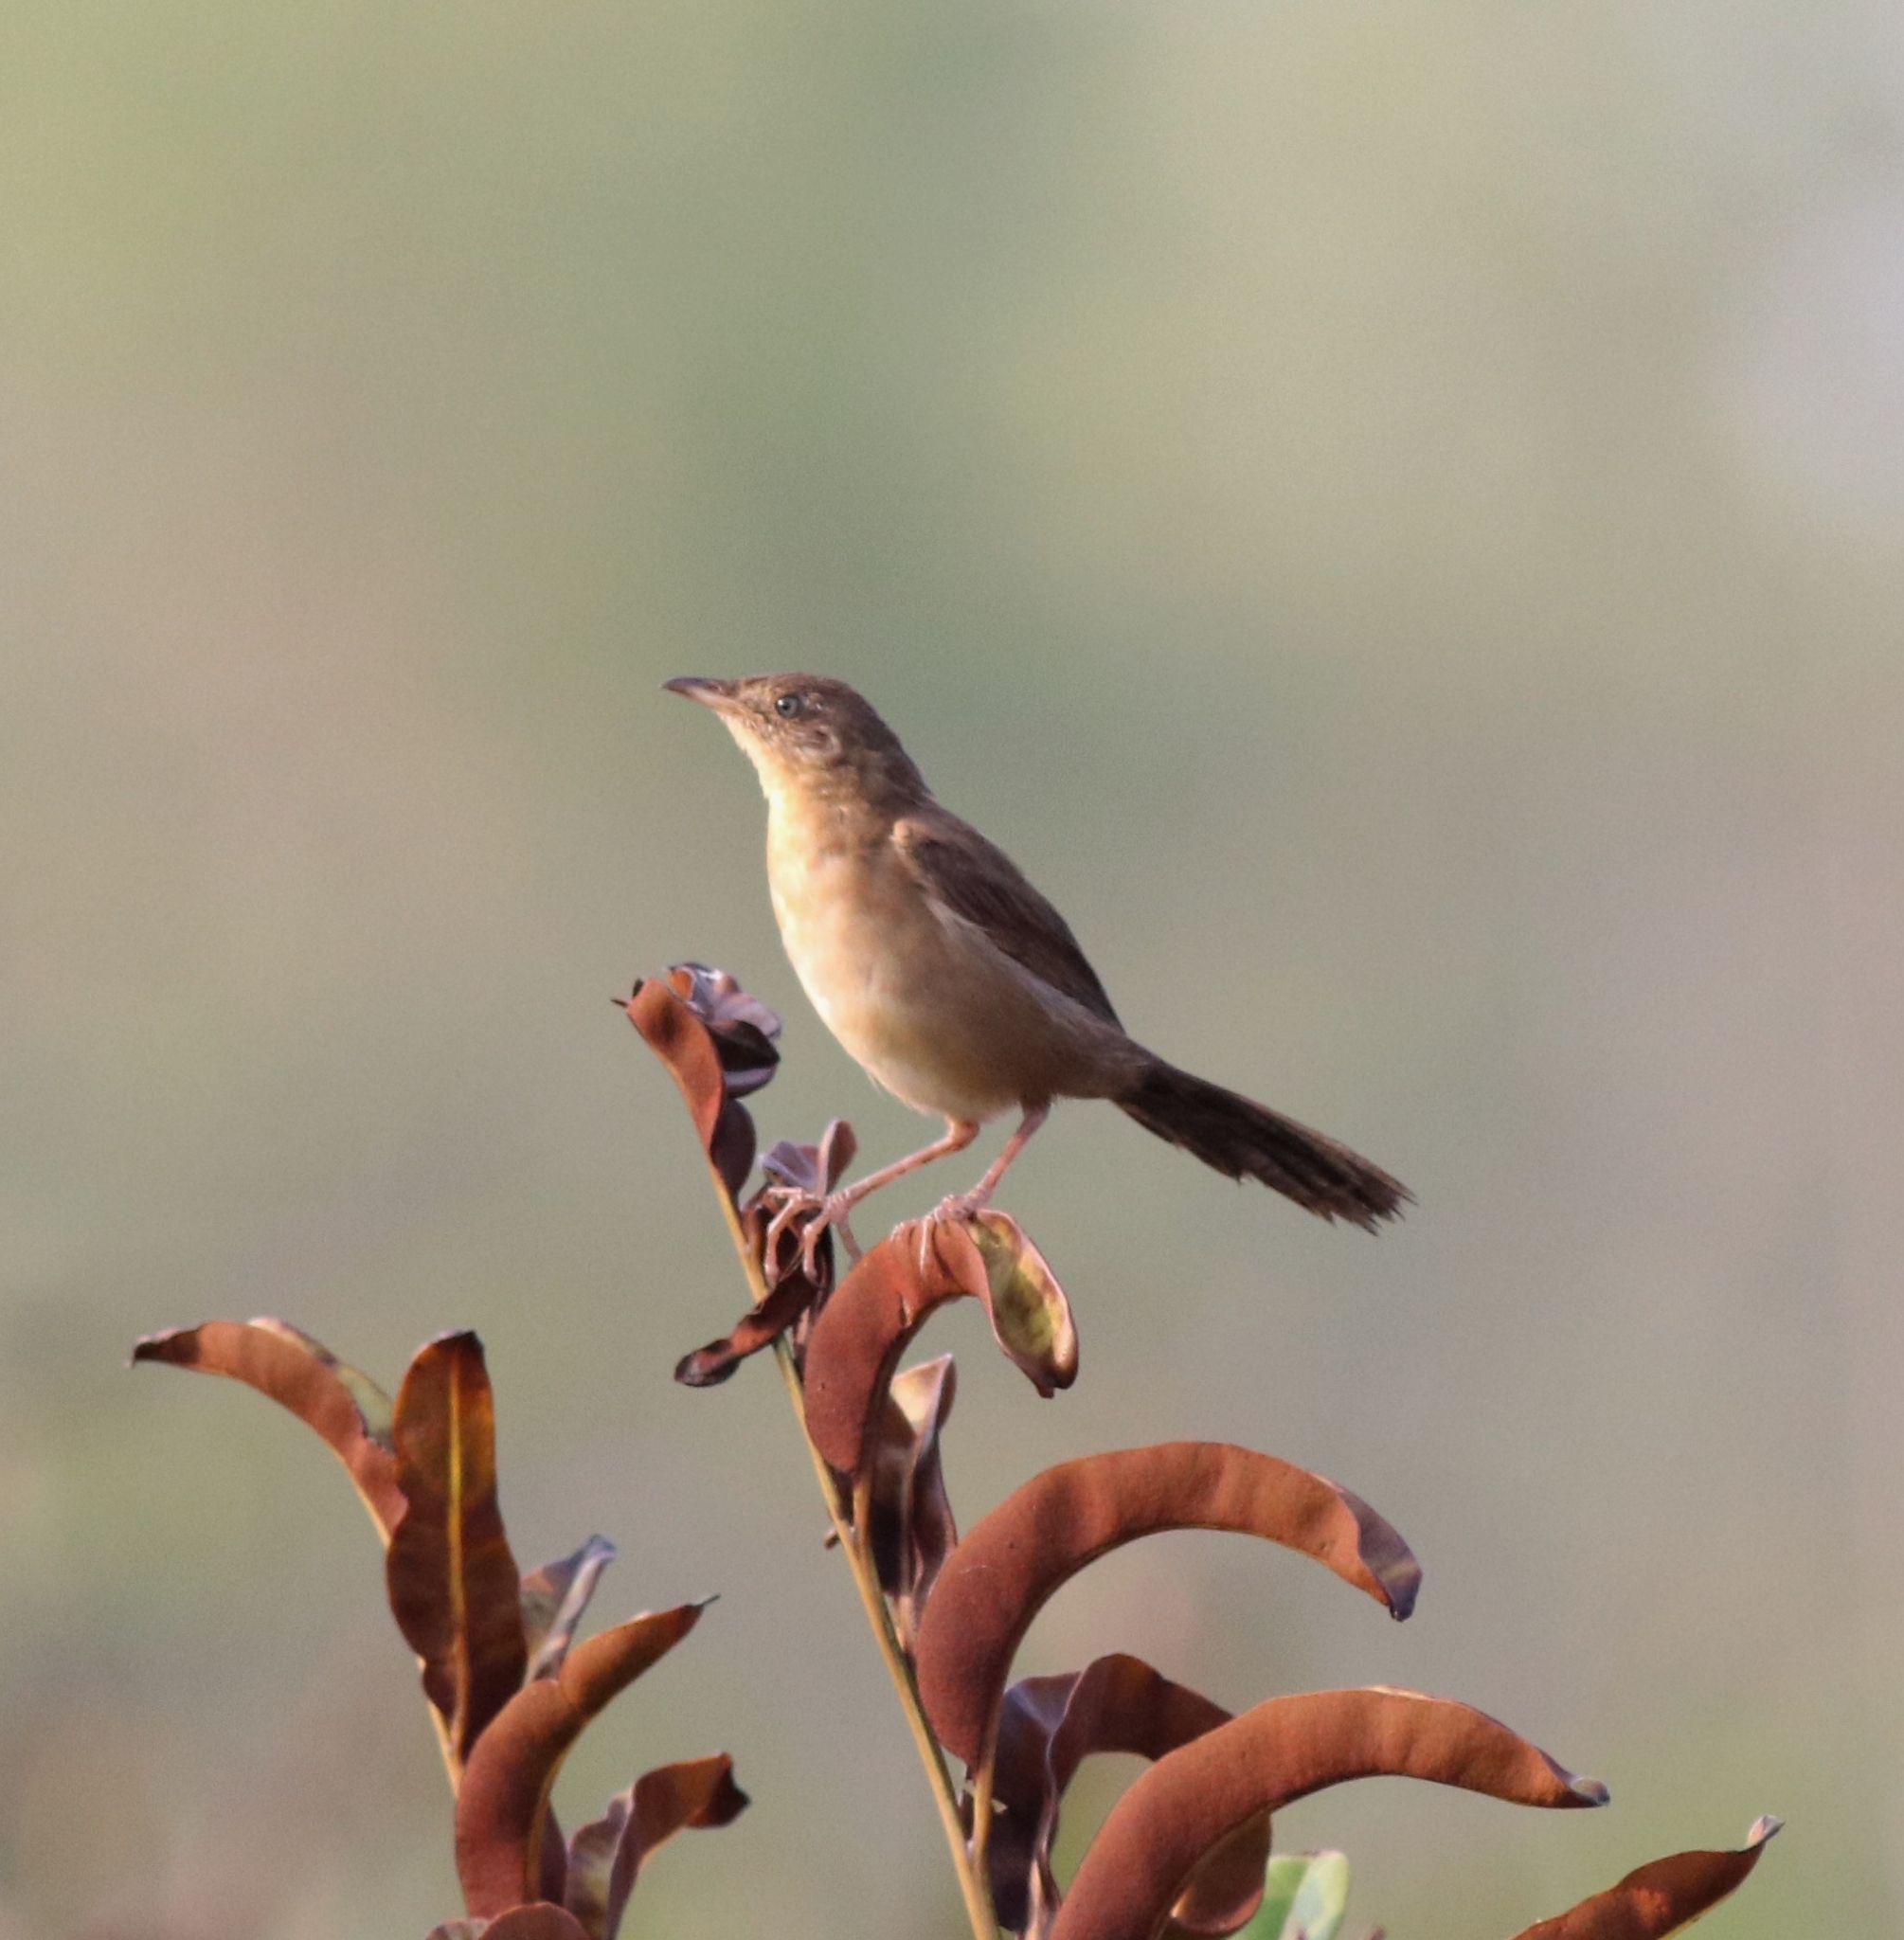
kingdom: Animalia
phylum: Chordata
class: Aves
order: Passeriformes
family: Locustellidae
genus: Schoenicola
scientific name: Schoenicola platyurus
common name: Broad-tailed grassbird
